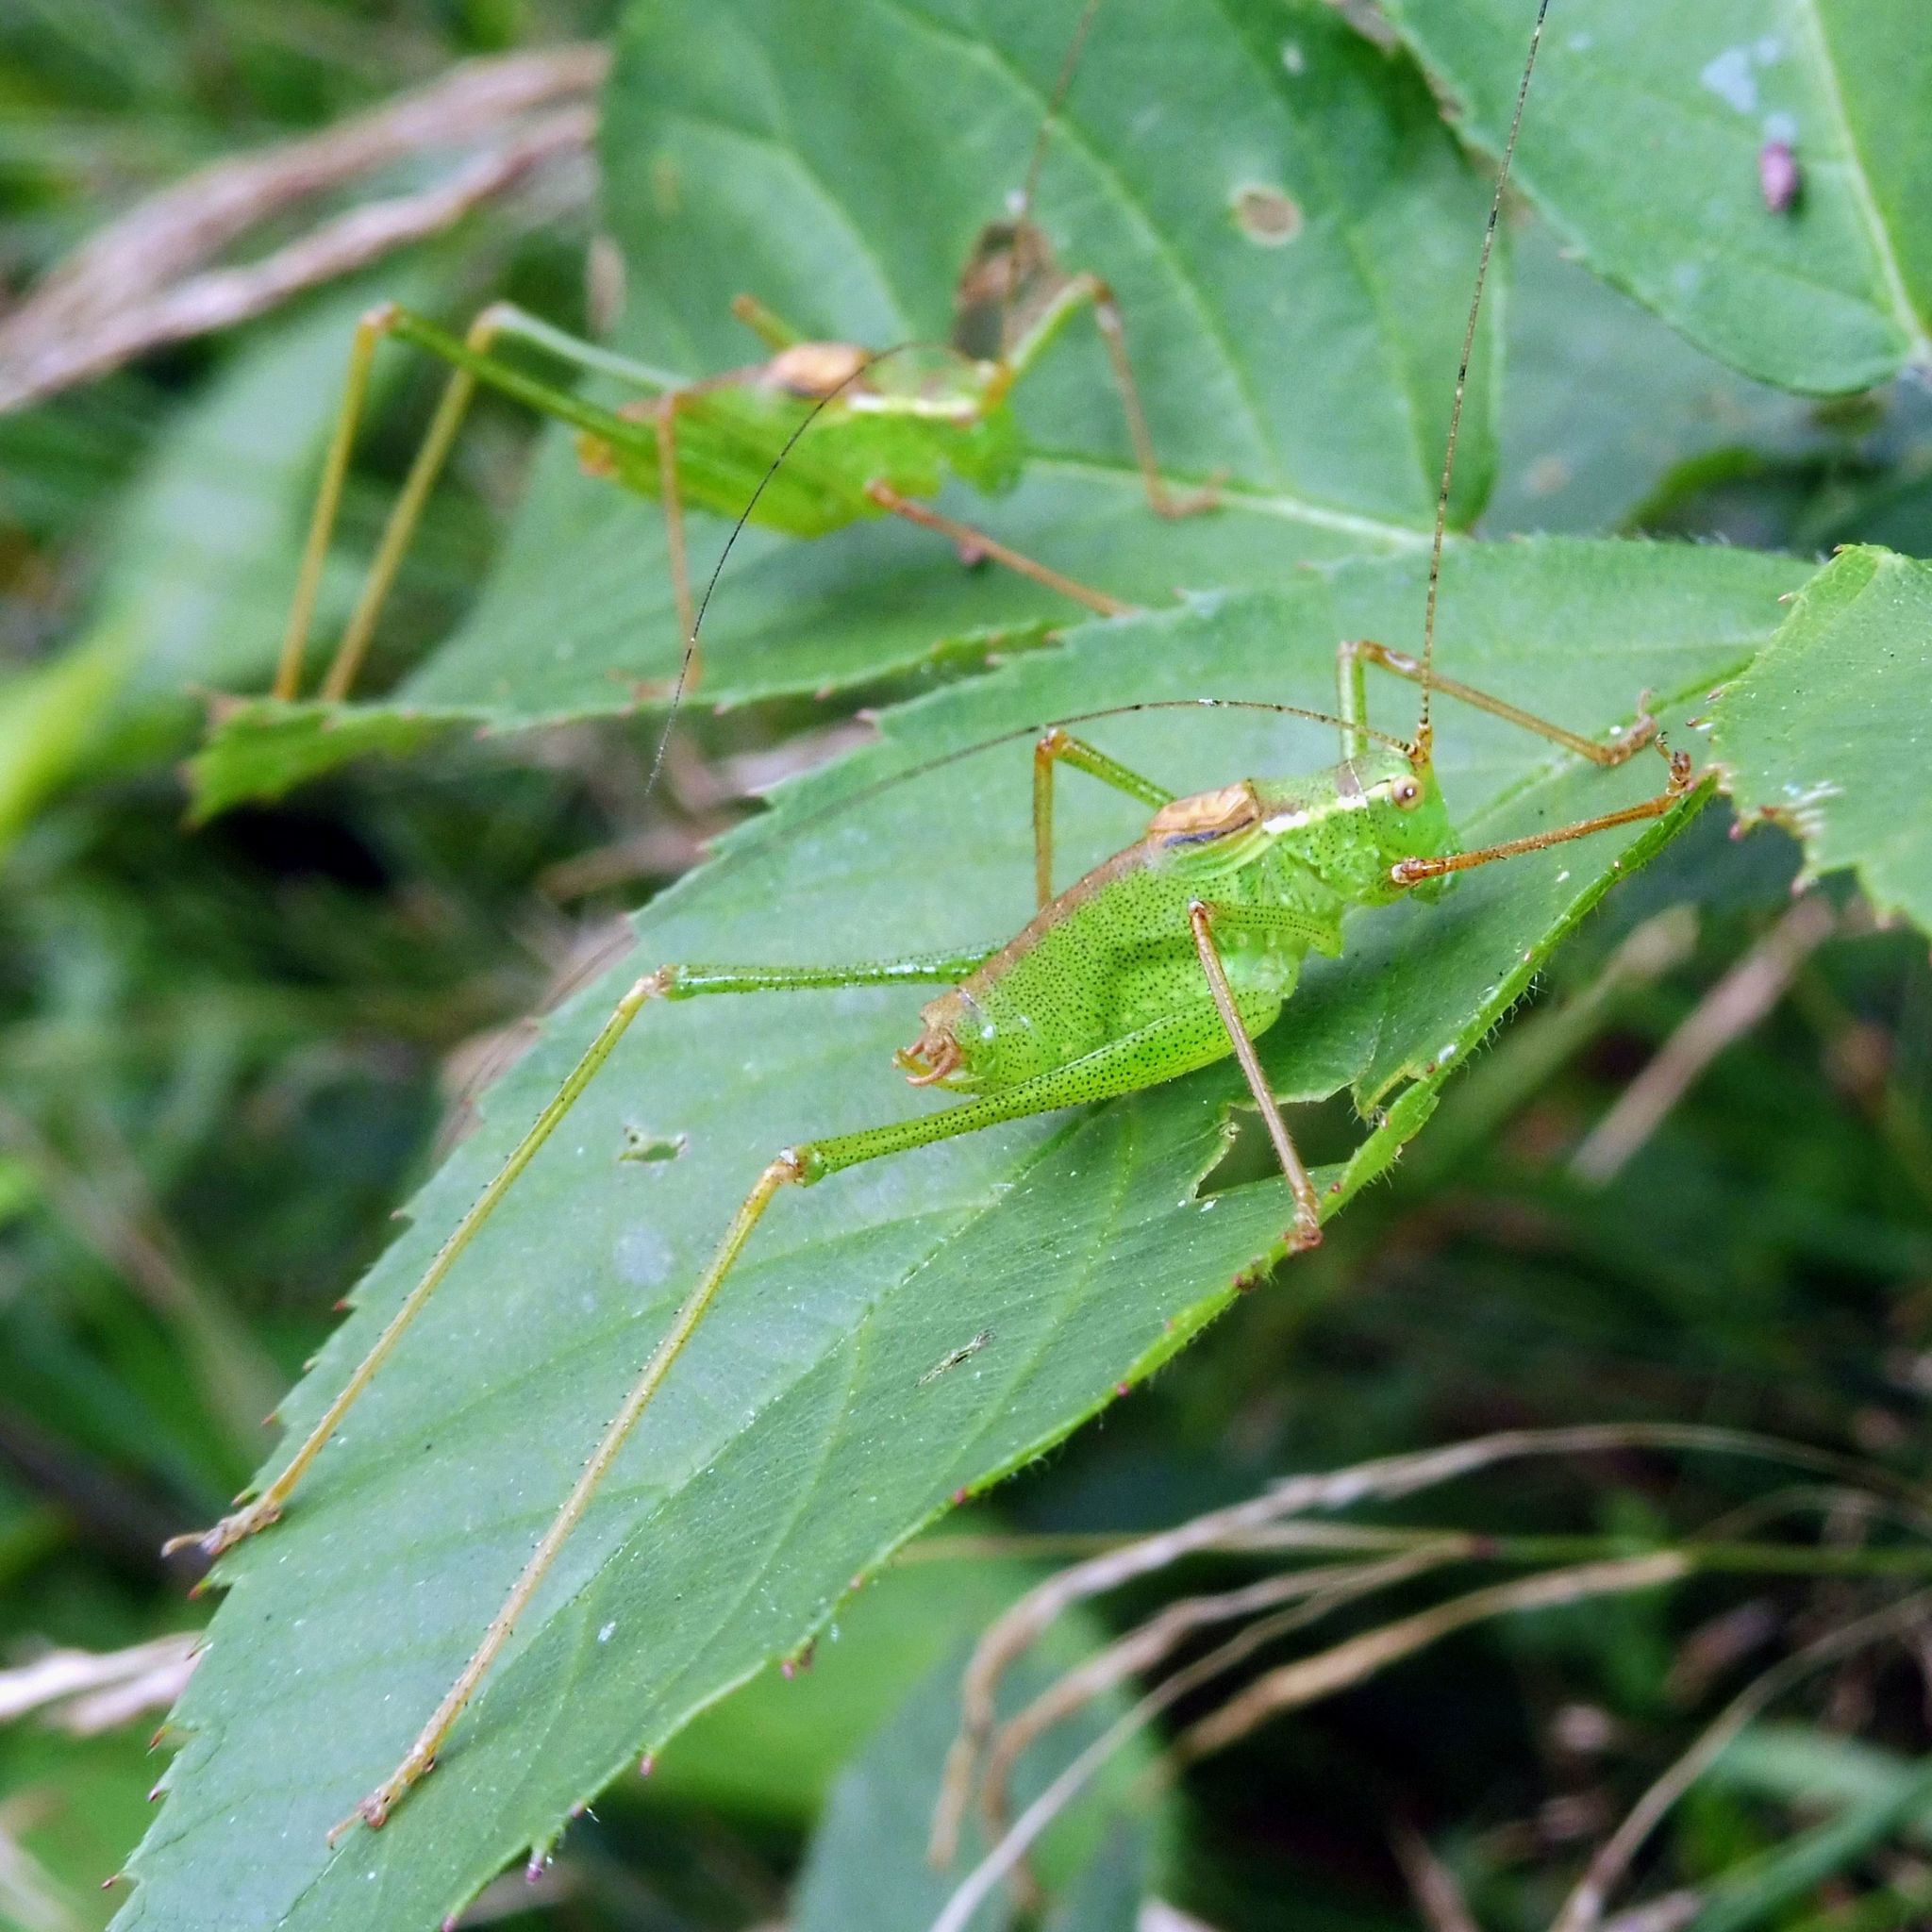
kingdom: Animalia
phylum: Arthropoda
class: Insecta
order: Orthoptera
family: Tettigoniidae
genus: Leptophyes
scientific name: Leptophyes punctatissima
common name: Speckled bush-cricket
